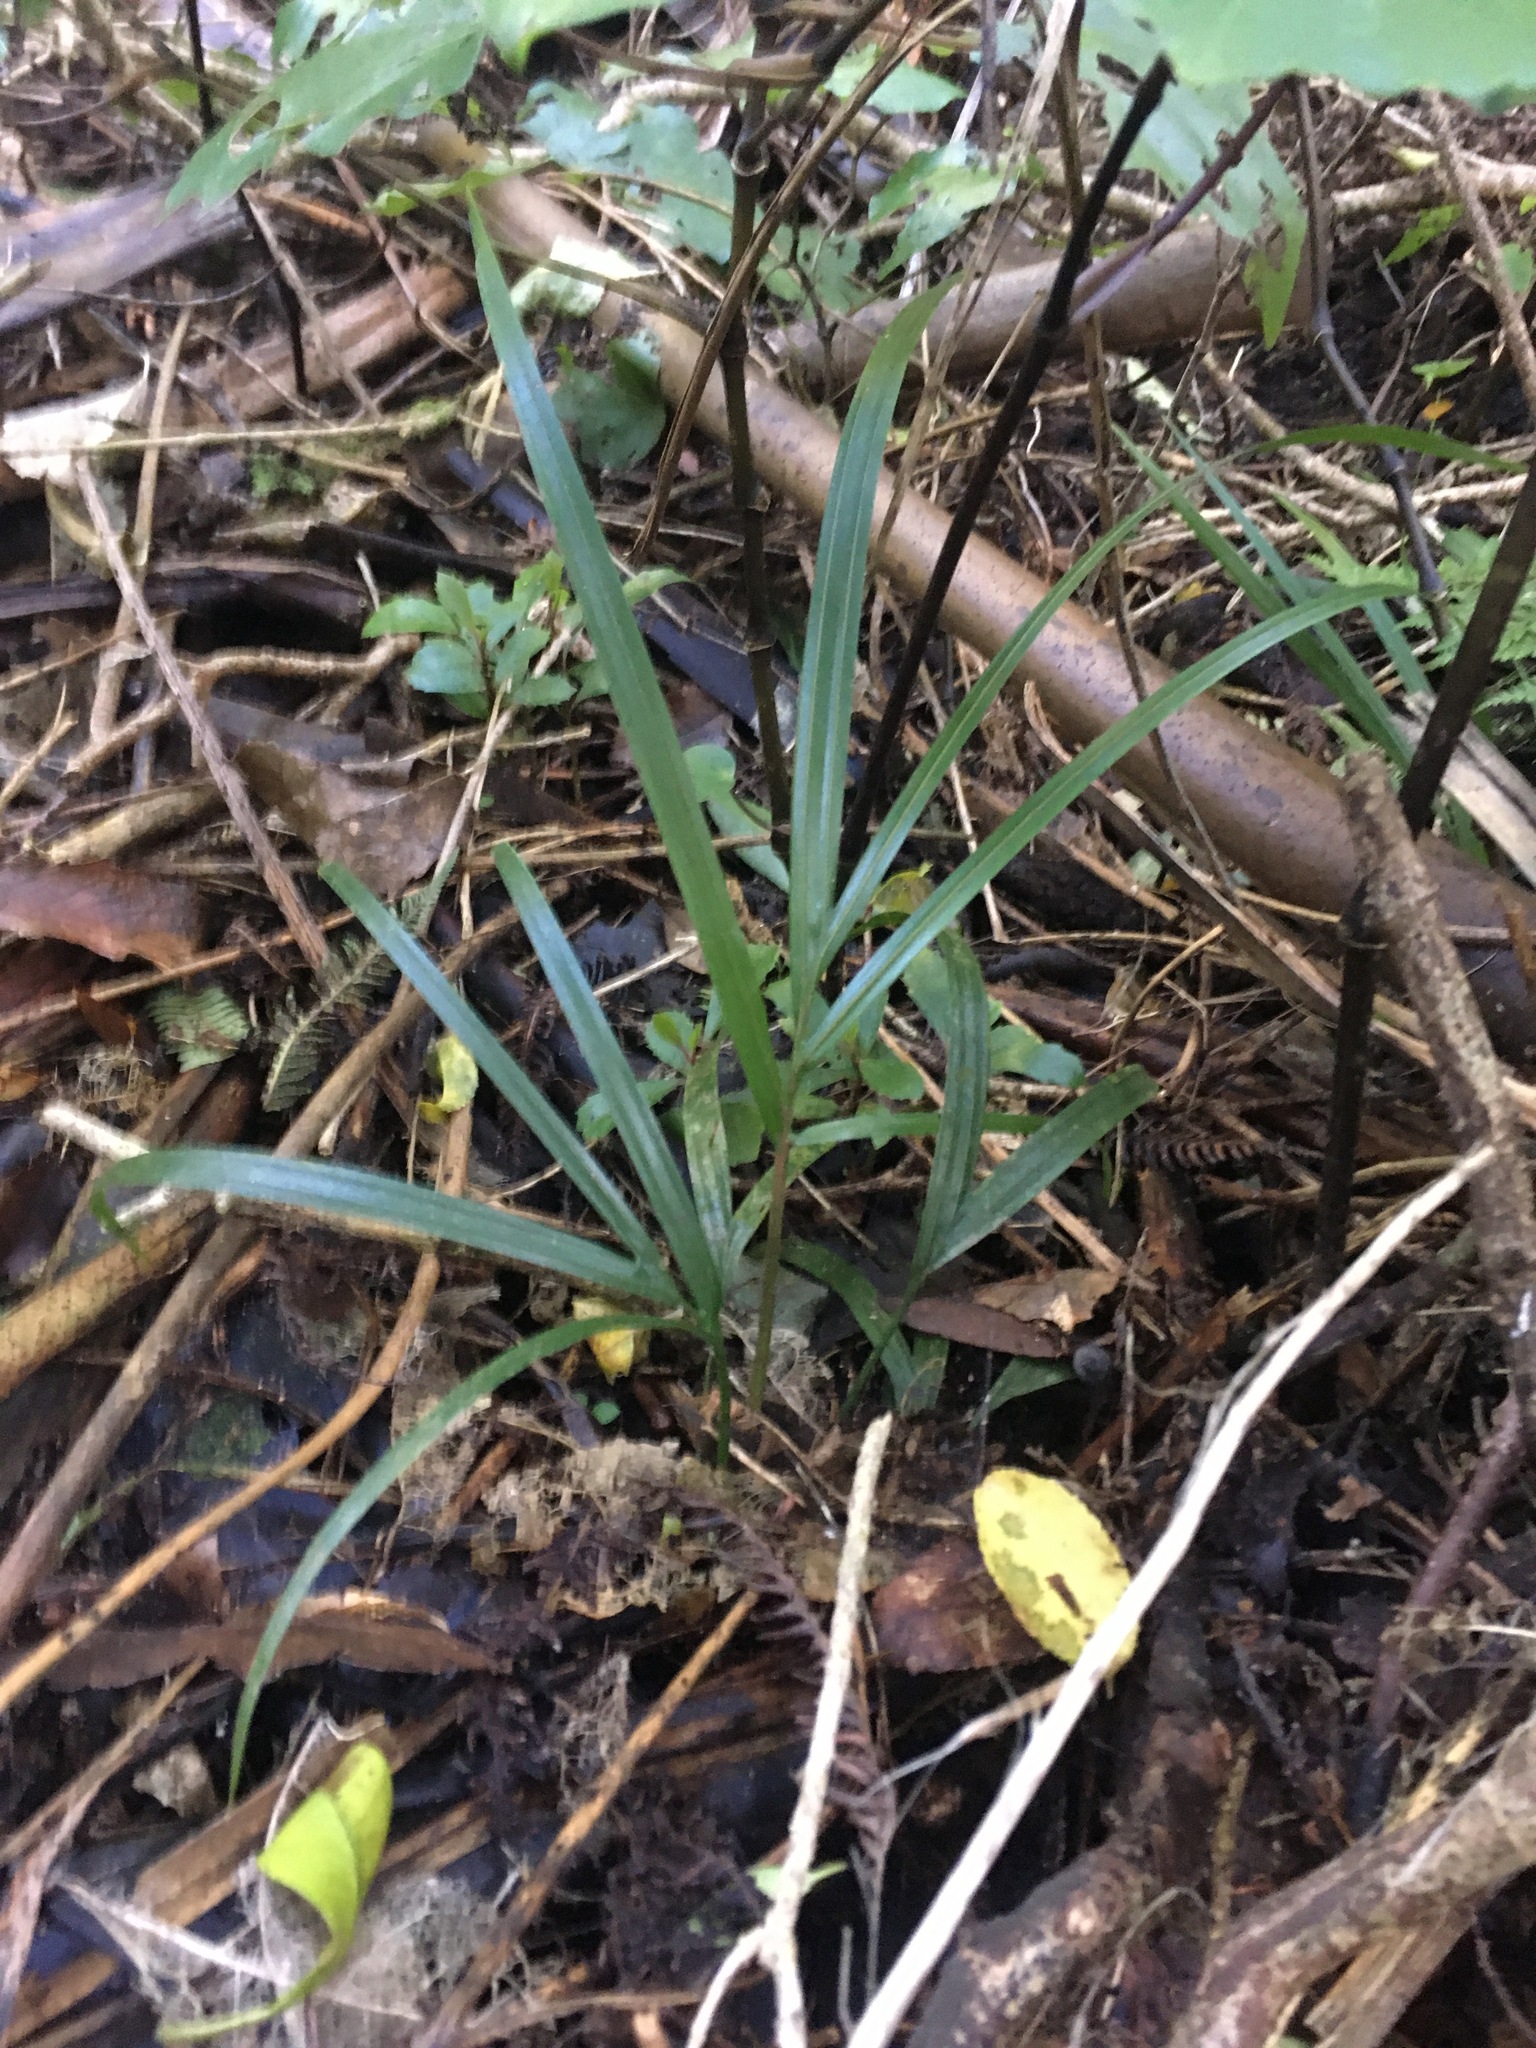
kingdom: Plantae
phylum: Tracheophyta
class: Liliopsida
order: Arecales
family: Arecaceae
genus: Rhopalostylis
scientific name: Rhopalostylis sapida
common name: Feather-duster palm
